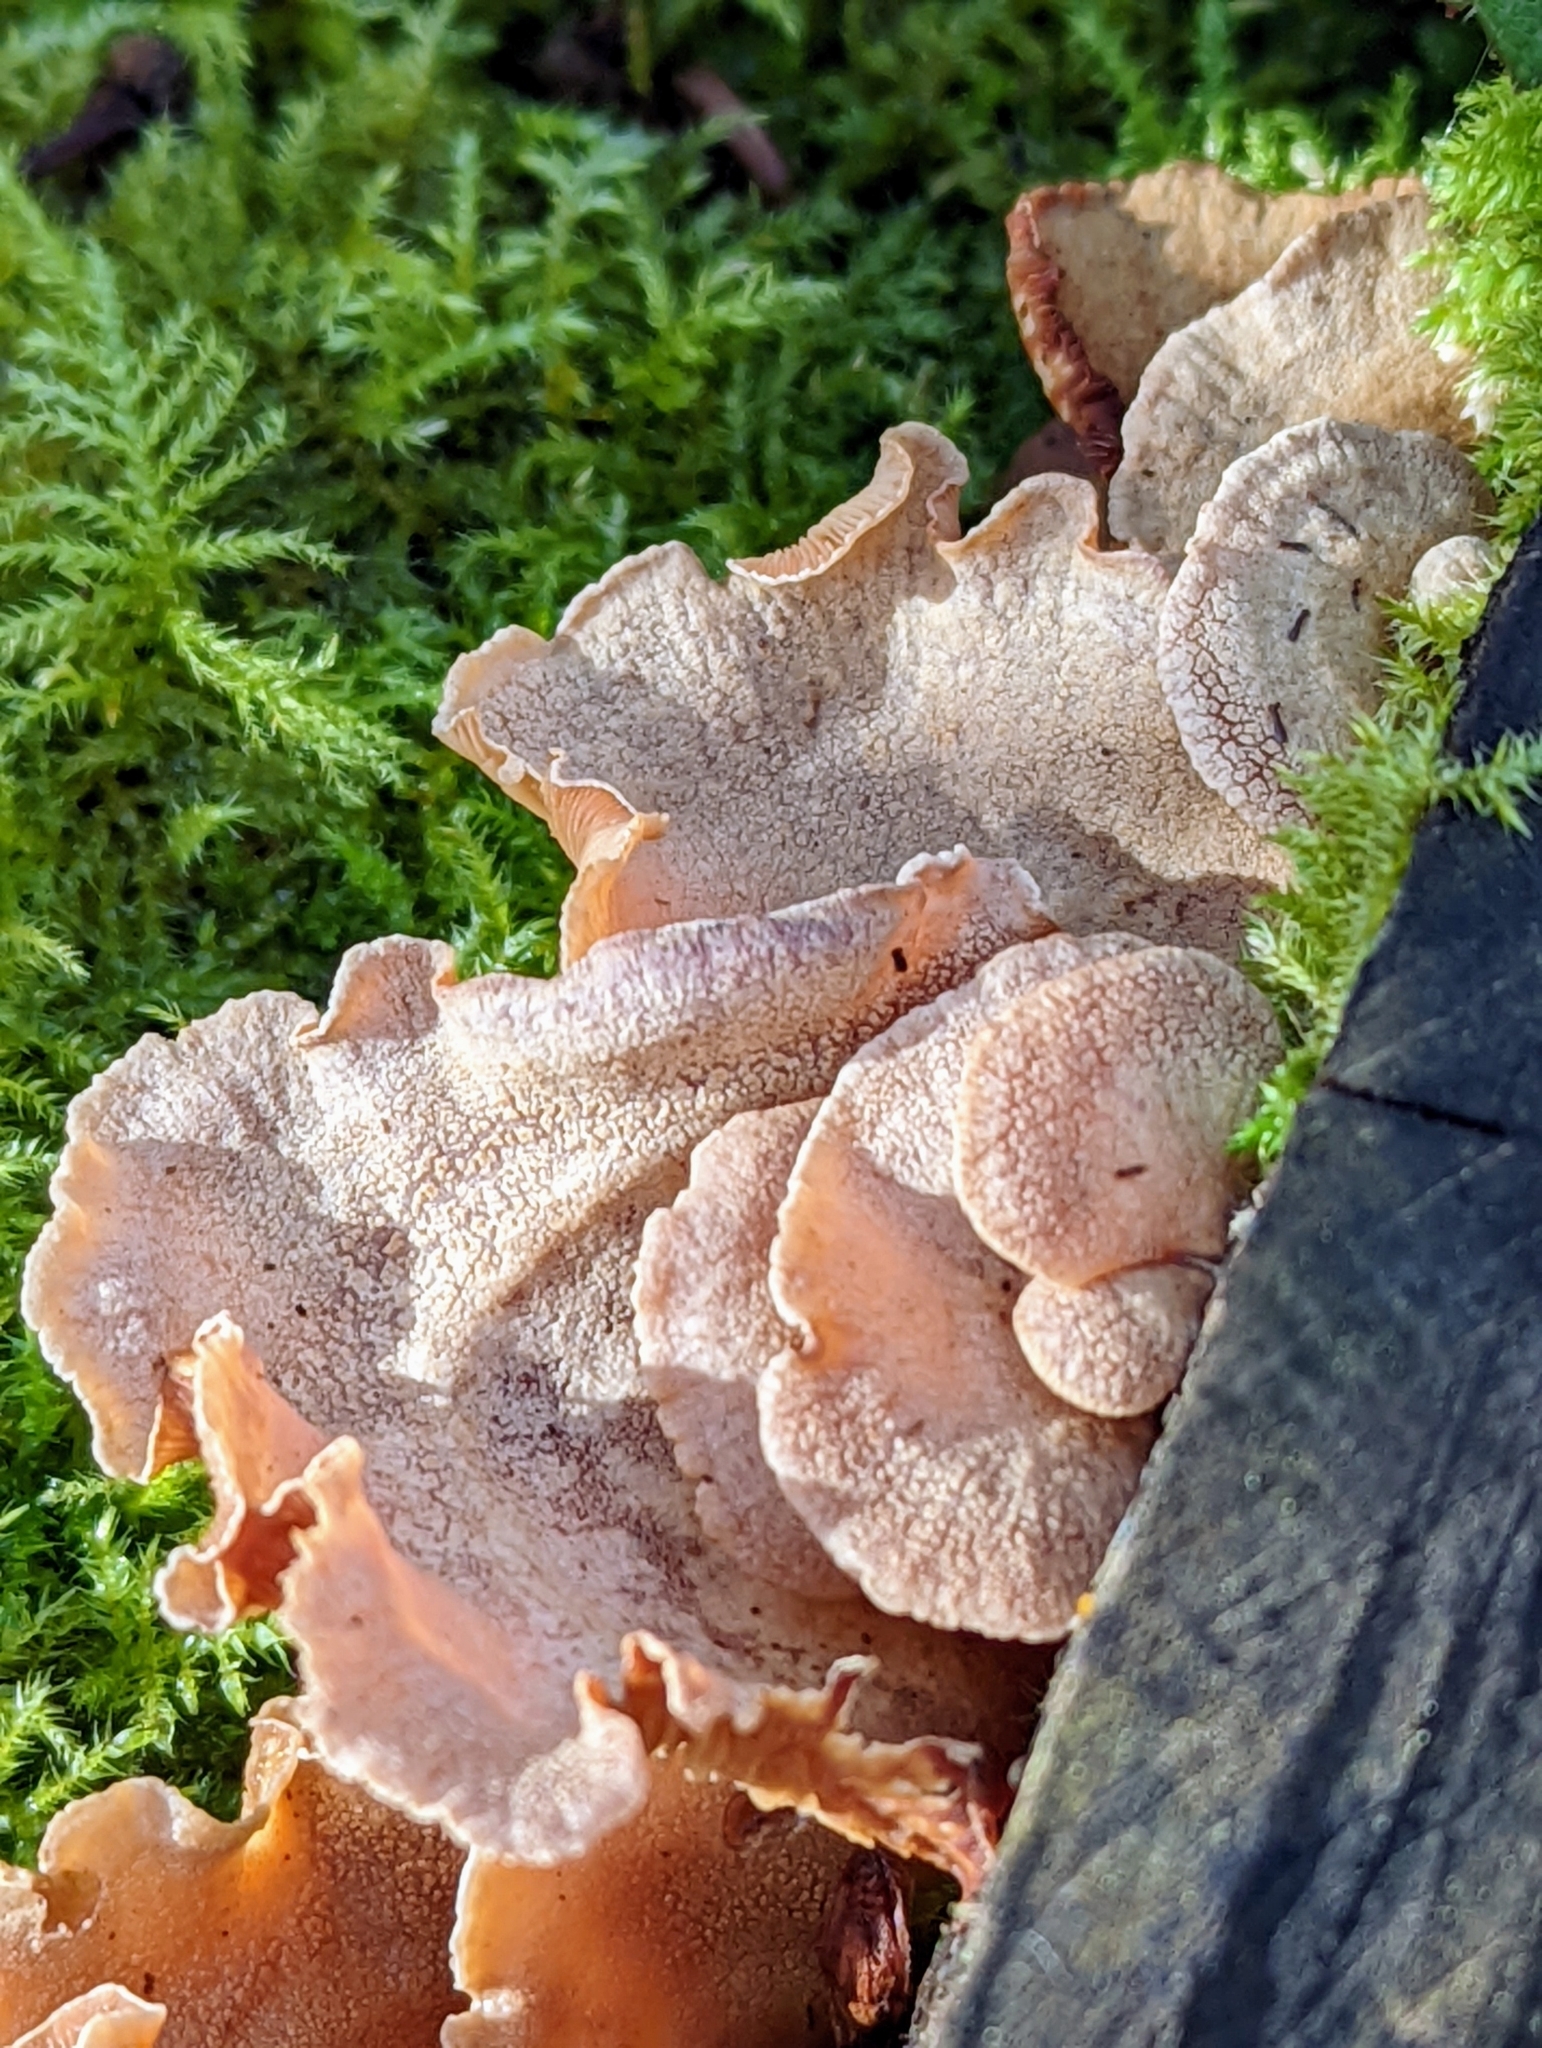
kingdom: Fungi
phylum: Basidiomycota
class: Agaricomycetes
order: Agaricales
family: Mycenaceae
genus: Panellus
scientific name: Panellus stipticus
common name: Bitter oysterling
